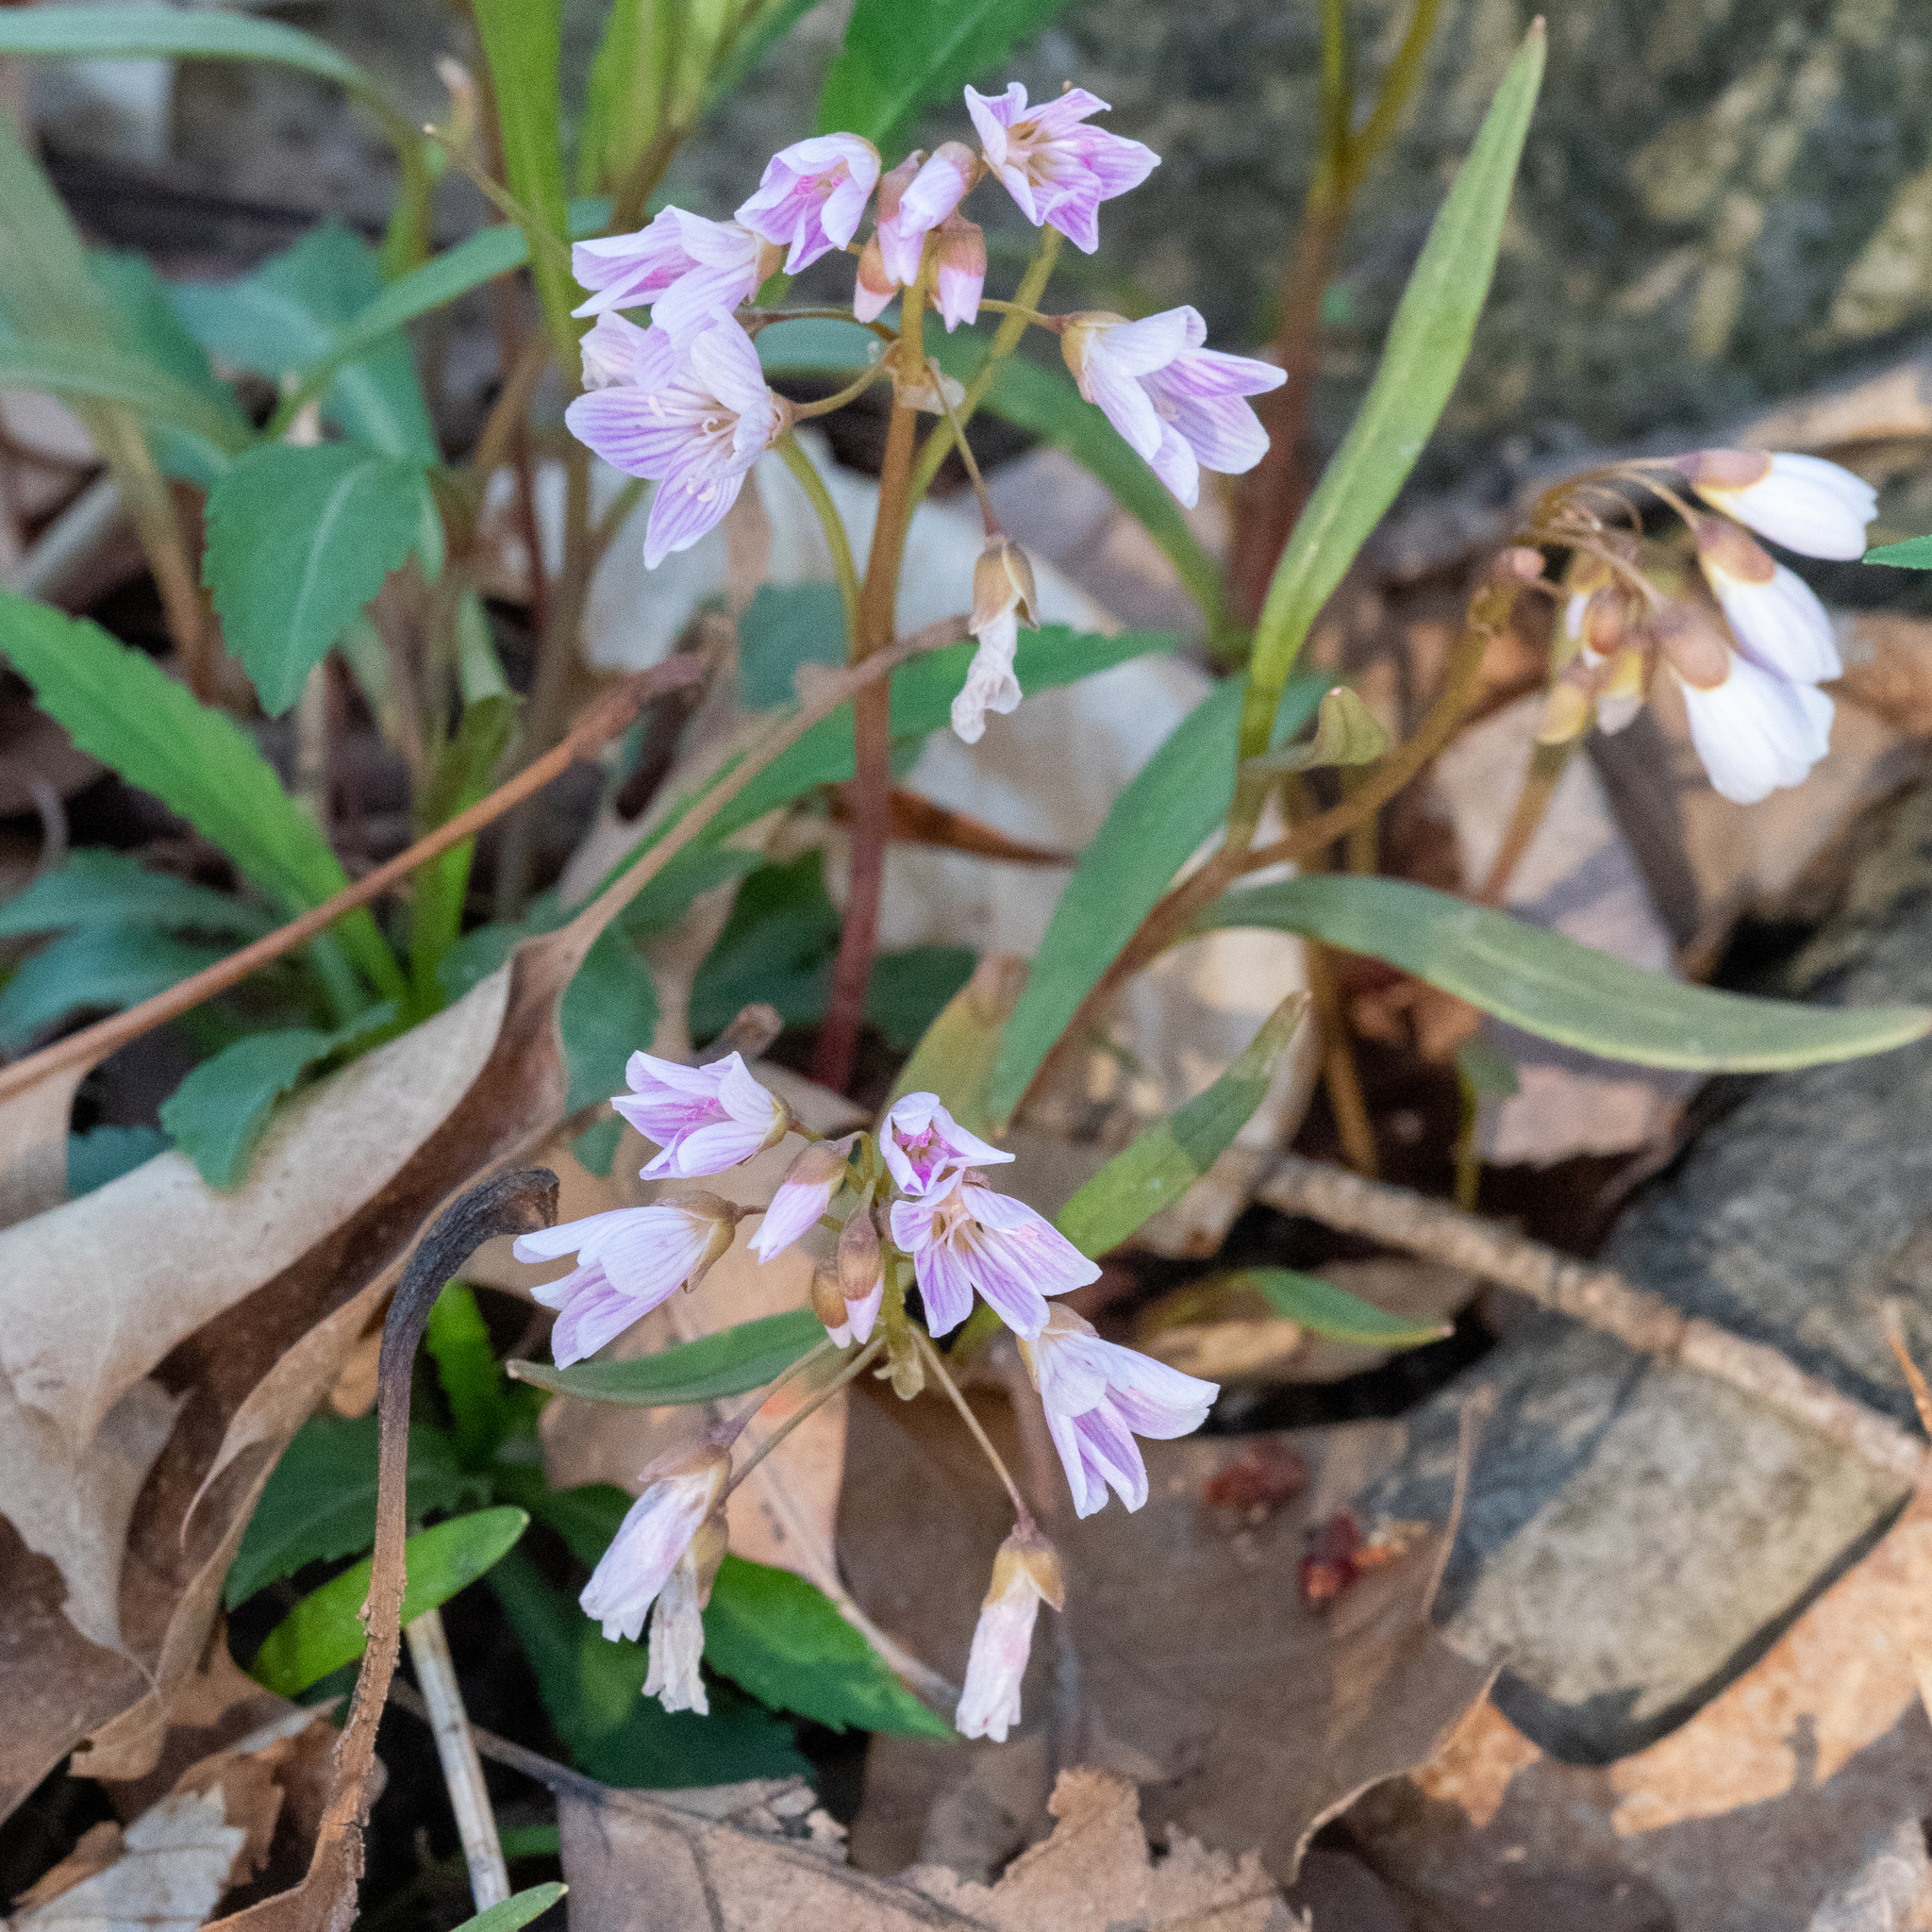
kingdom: Plantae
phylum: Tracheophyta
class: Magnoliopsida
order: Caryophyllales
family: Montiaceae
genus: Claytonia
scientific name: Claytonia virginica
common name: Virginia springbeauty
